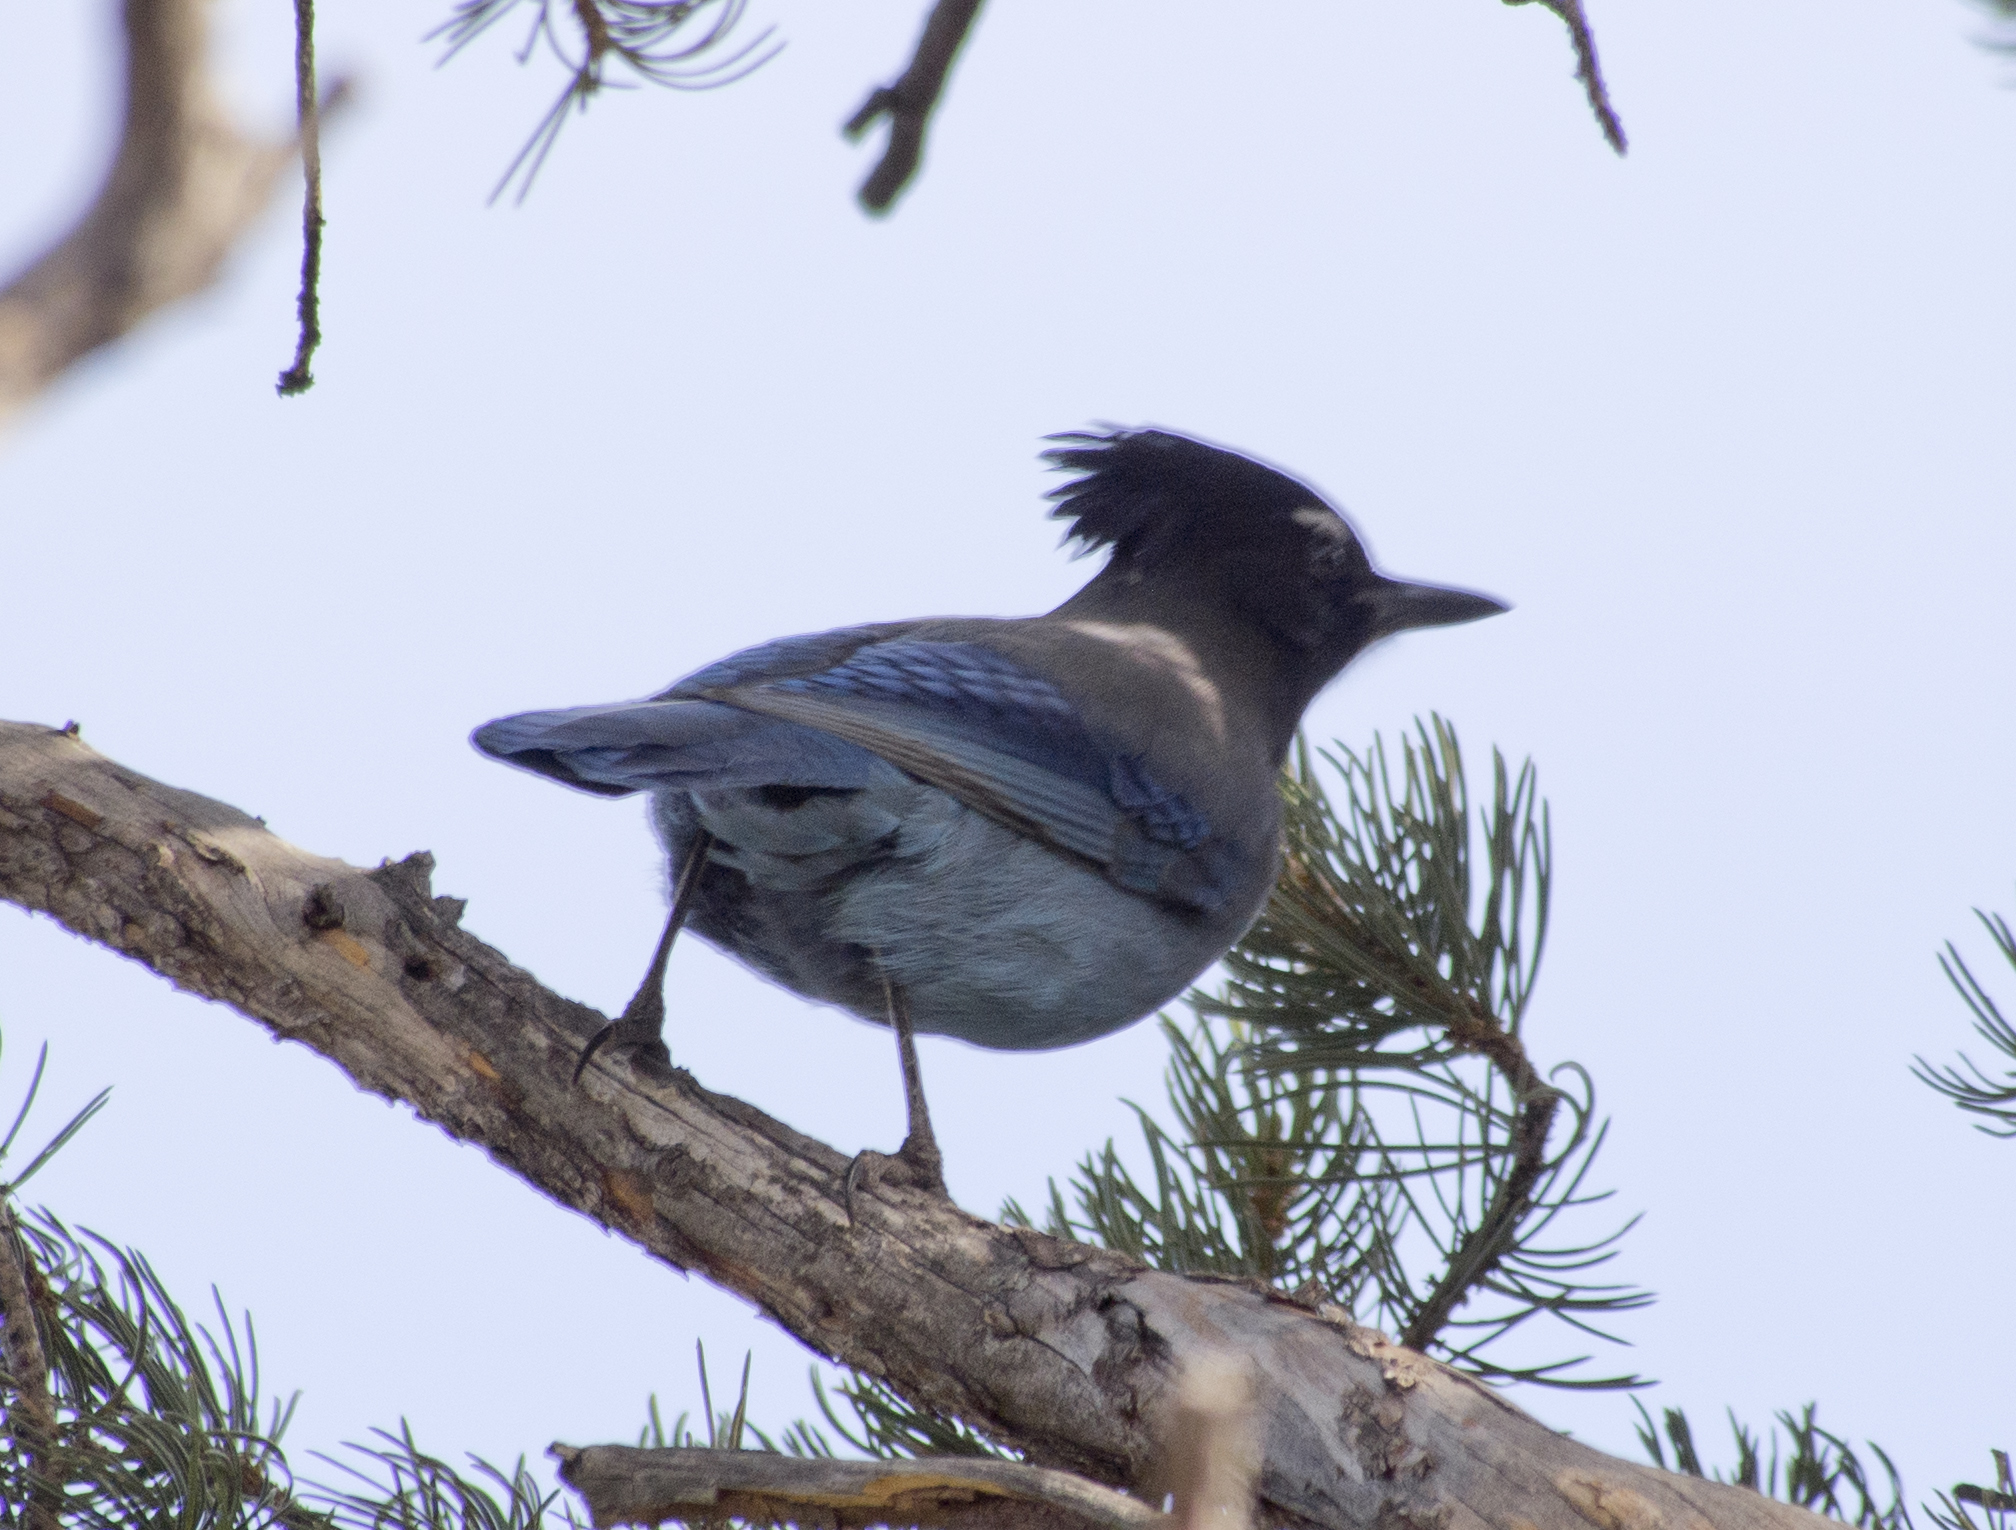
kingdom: Animalia
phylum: Chordata
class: Aves
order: Passeriformes
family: Corvidae
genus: Cyanocitta
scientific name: Cyanocitta stelleri
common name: Steller's jay
